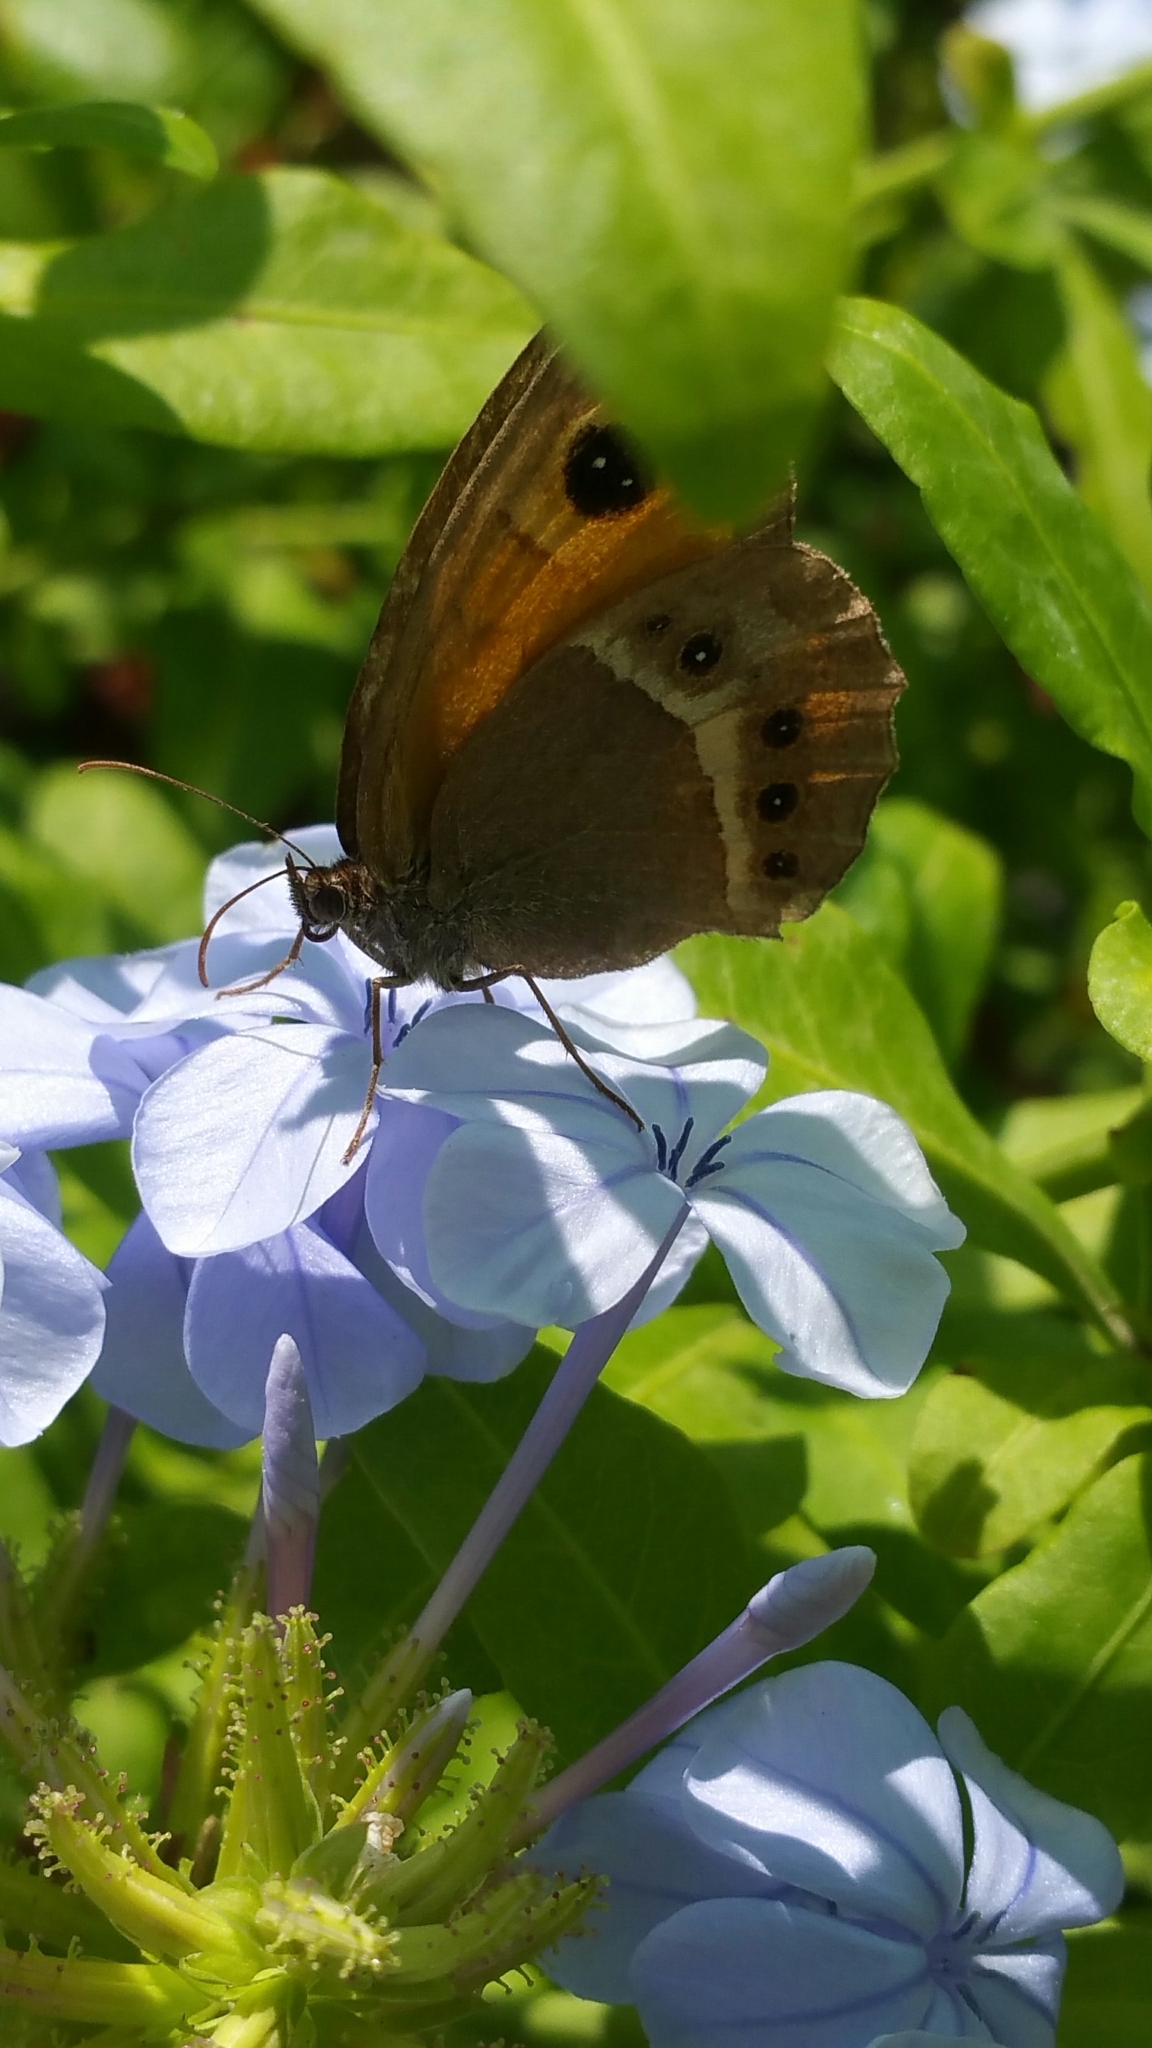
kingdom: Animalia
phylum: Arthropoda
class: Insecta
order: Lepidoptera
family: Nymphalidae
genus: Pyronia
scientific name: Pyronia bathseba
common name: Spanish gatekeeper
